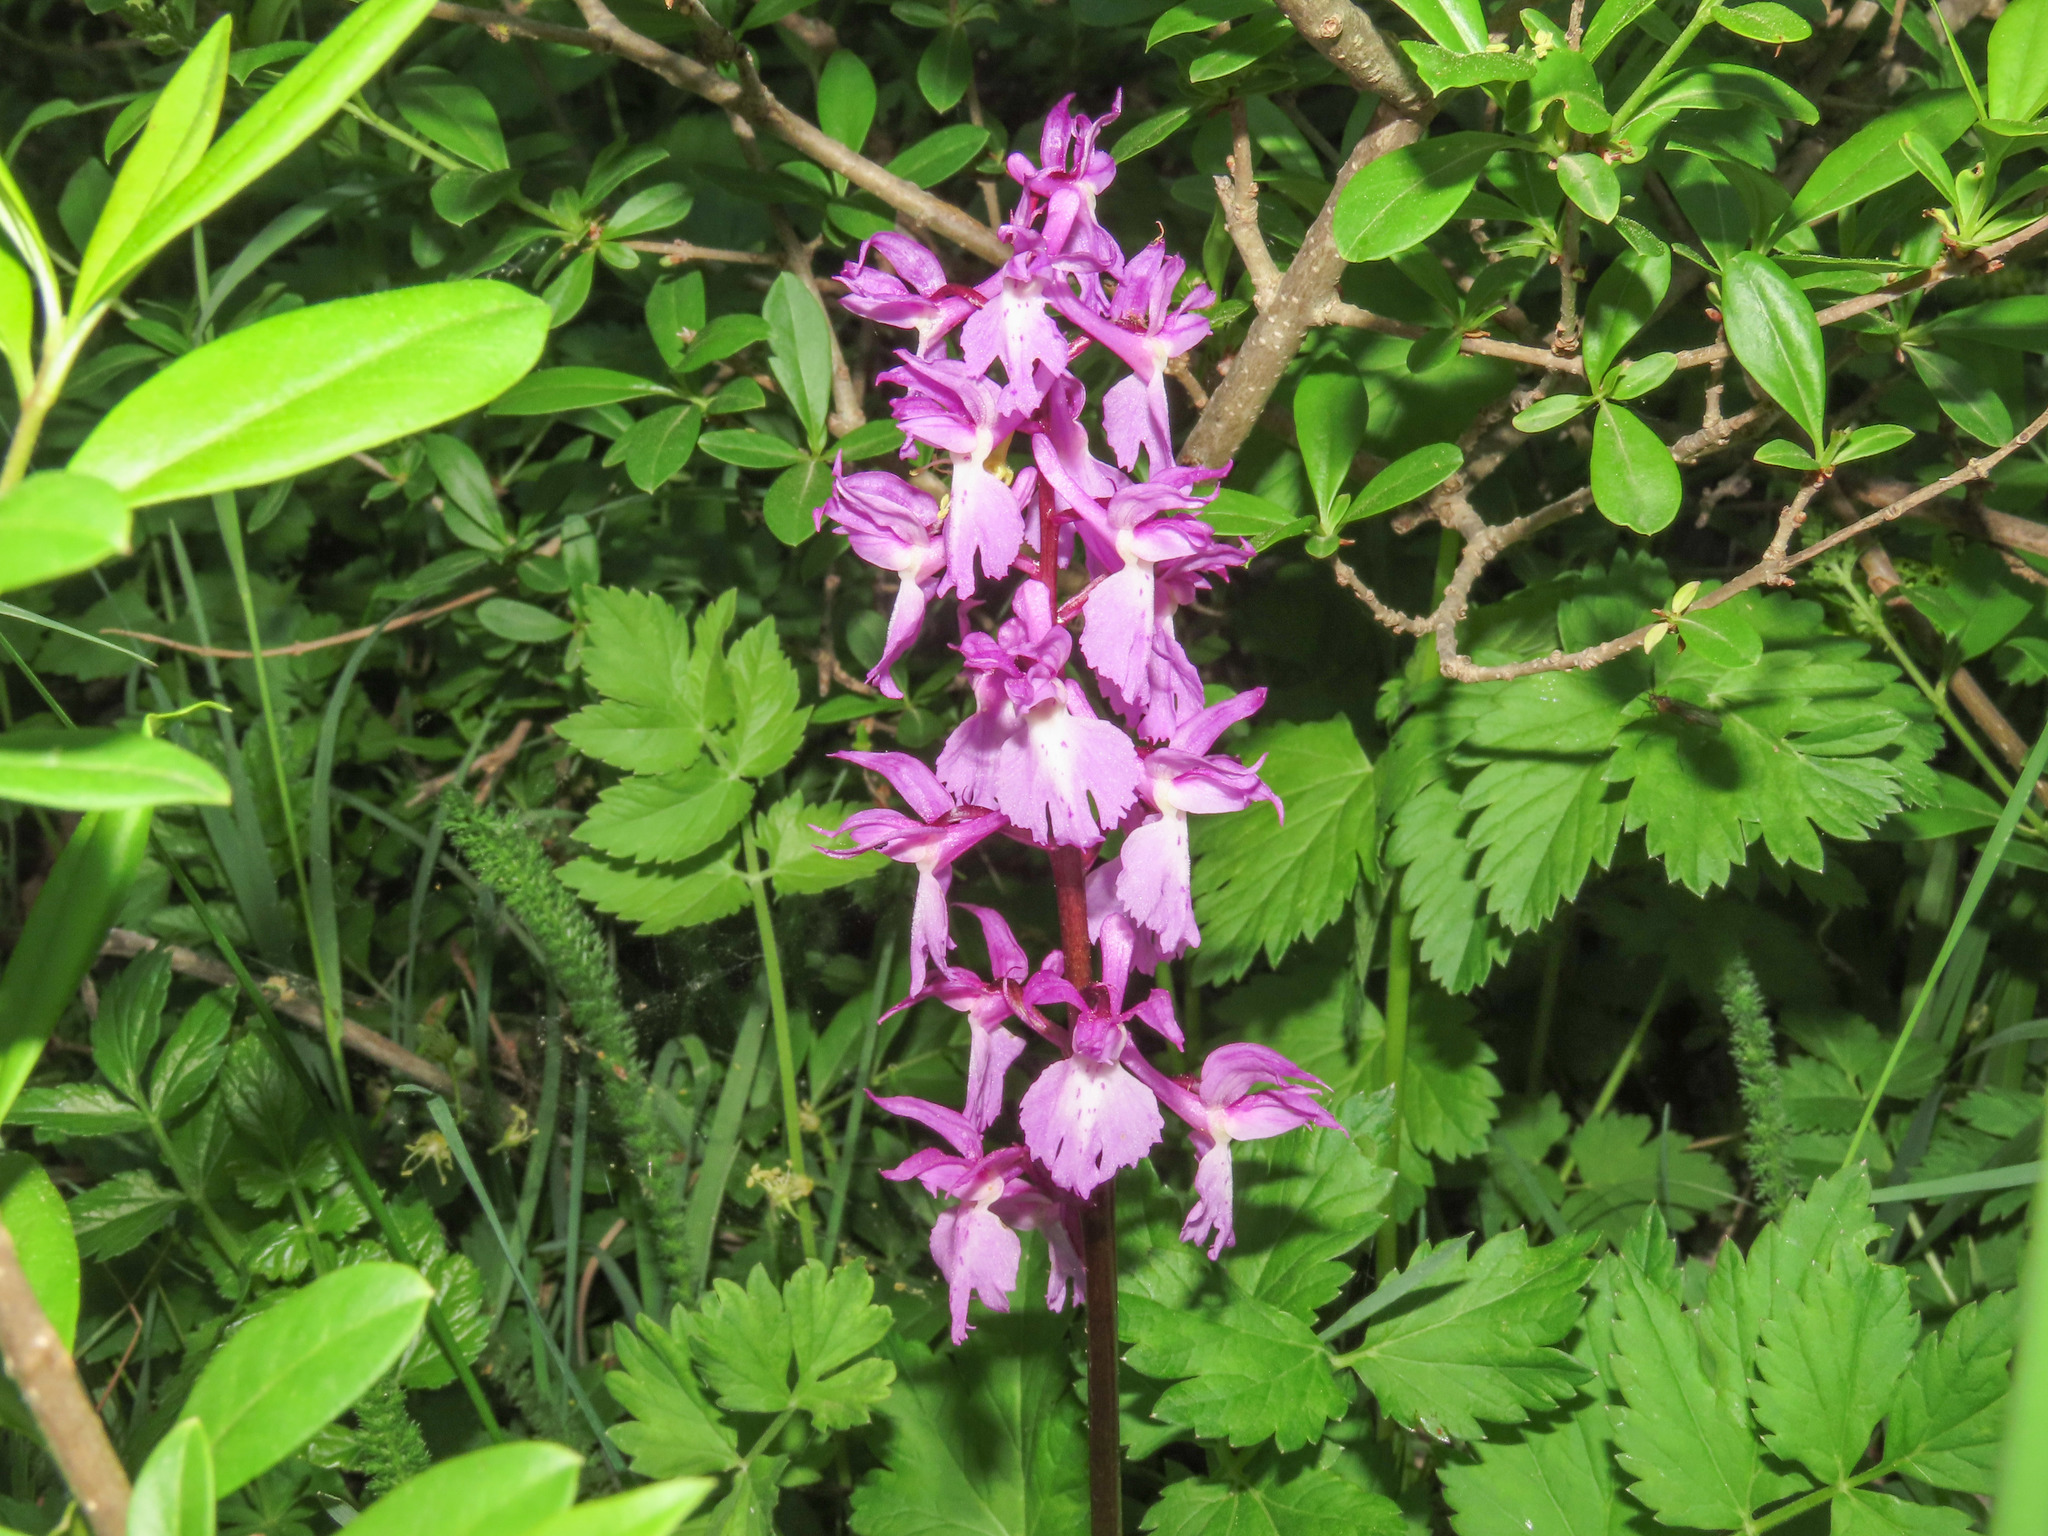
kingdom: Plantae
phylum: Tracheophyta
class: Liliopsida
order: Asparagales
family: Orchidaceae
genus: Orchis
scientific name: Orchis mascula
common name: Early-purple orchid
